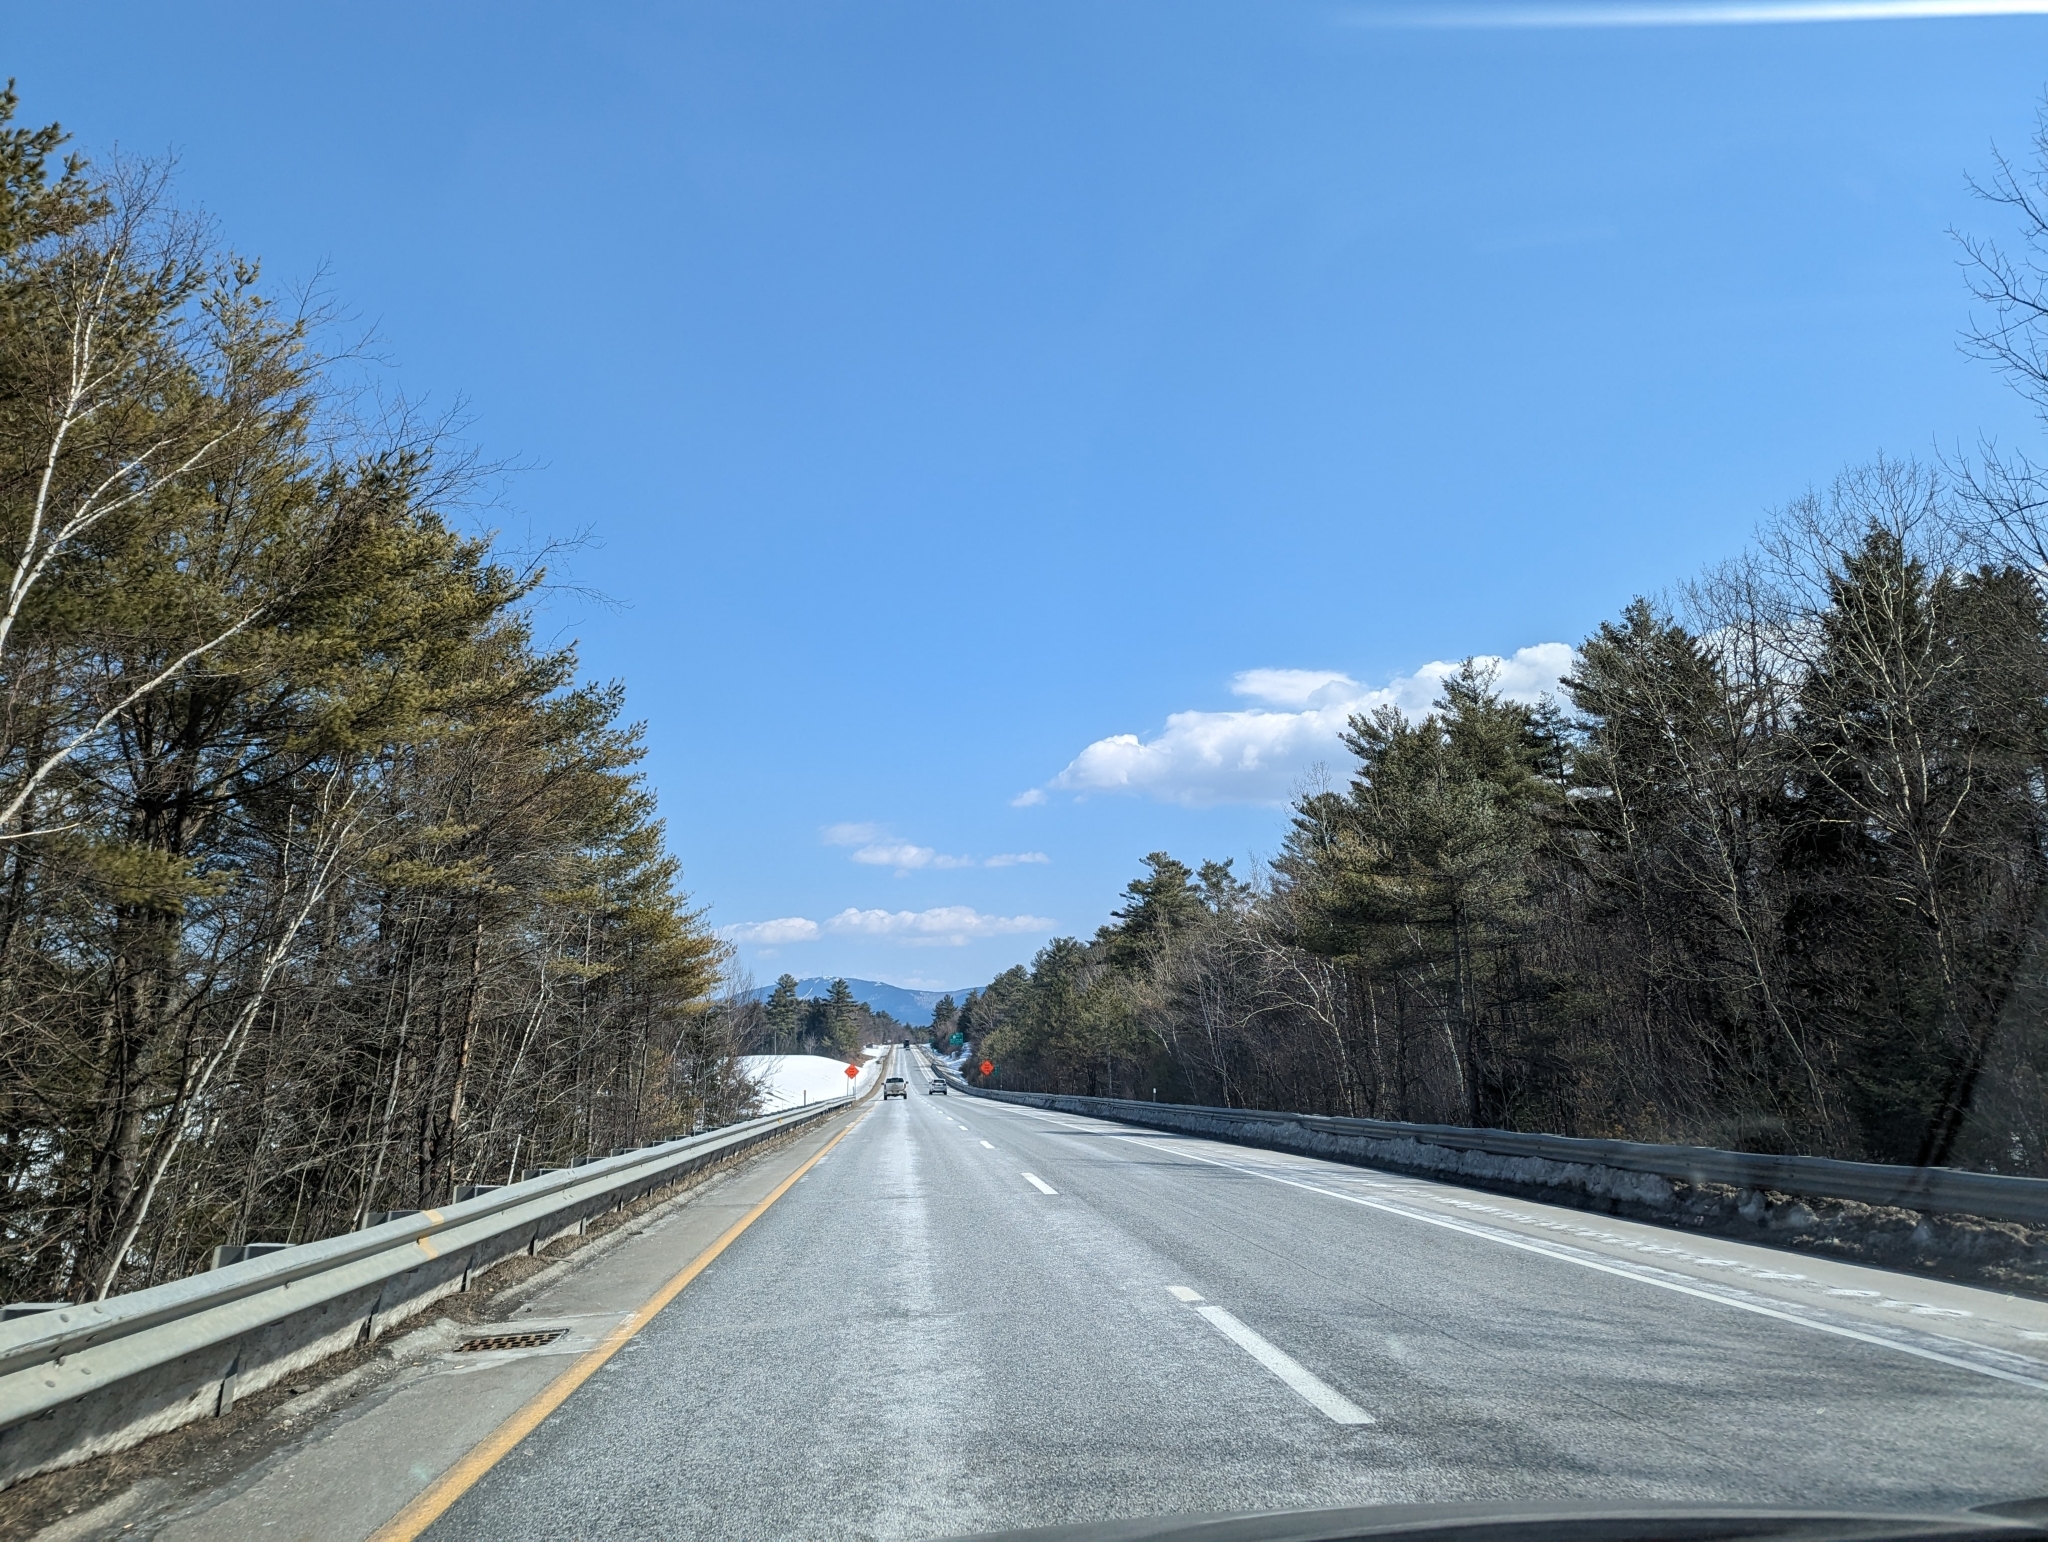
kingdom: Plantae
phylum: Tracheophyta
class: Pinopsida
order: Pinales
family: Pinaceae
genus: Pinus
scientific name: Pinus strobus
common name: Weymouth pine
